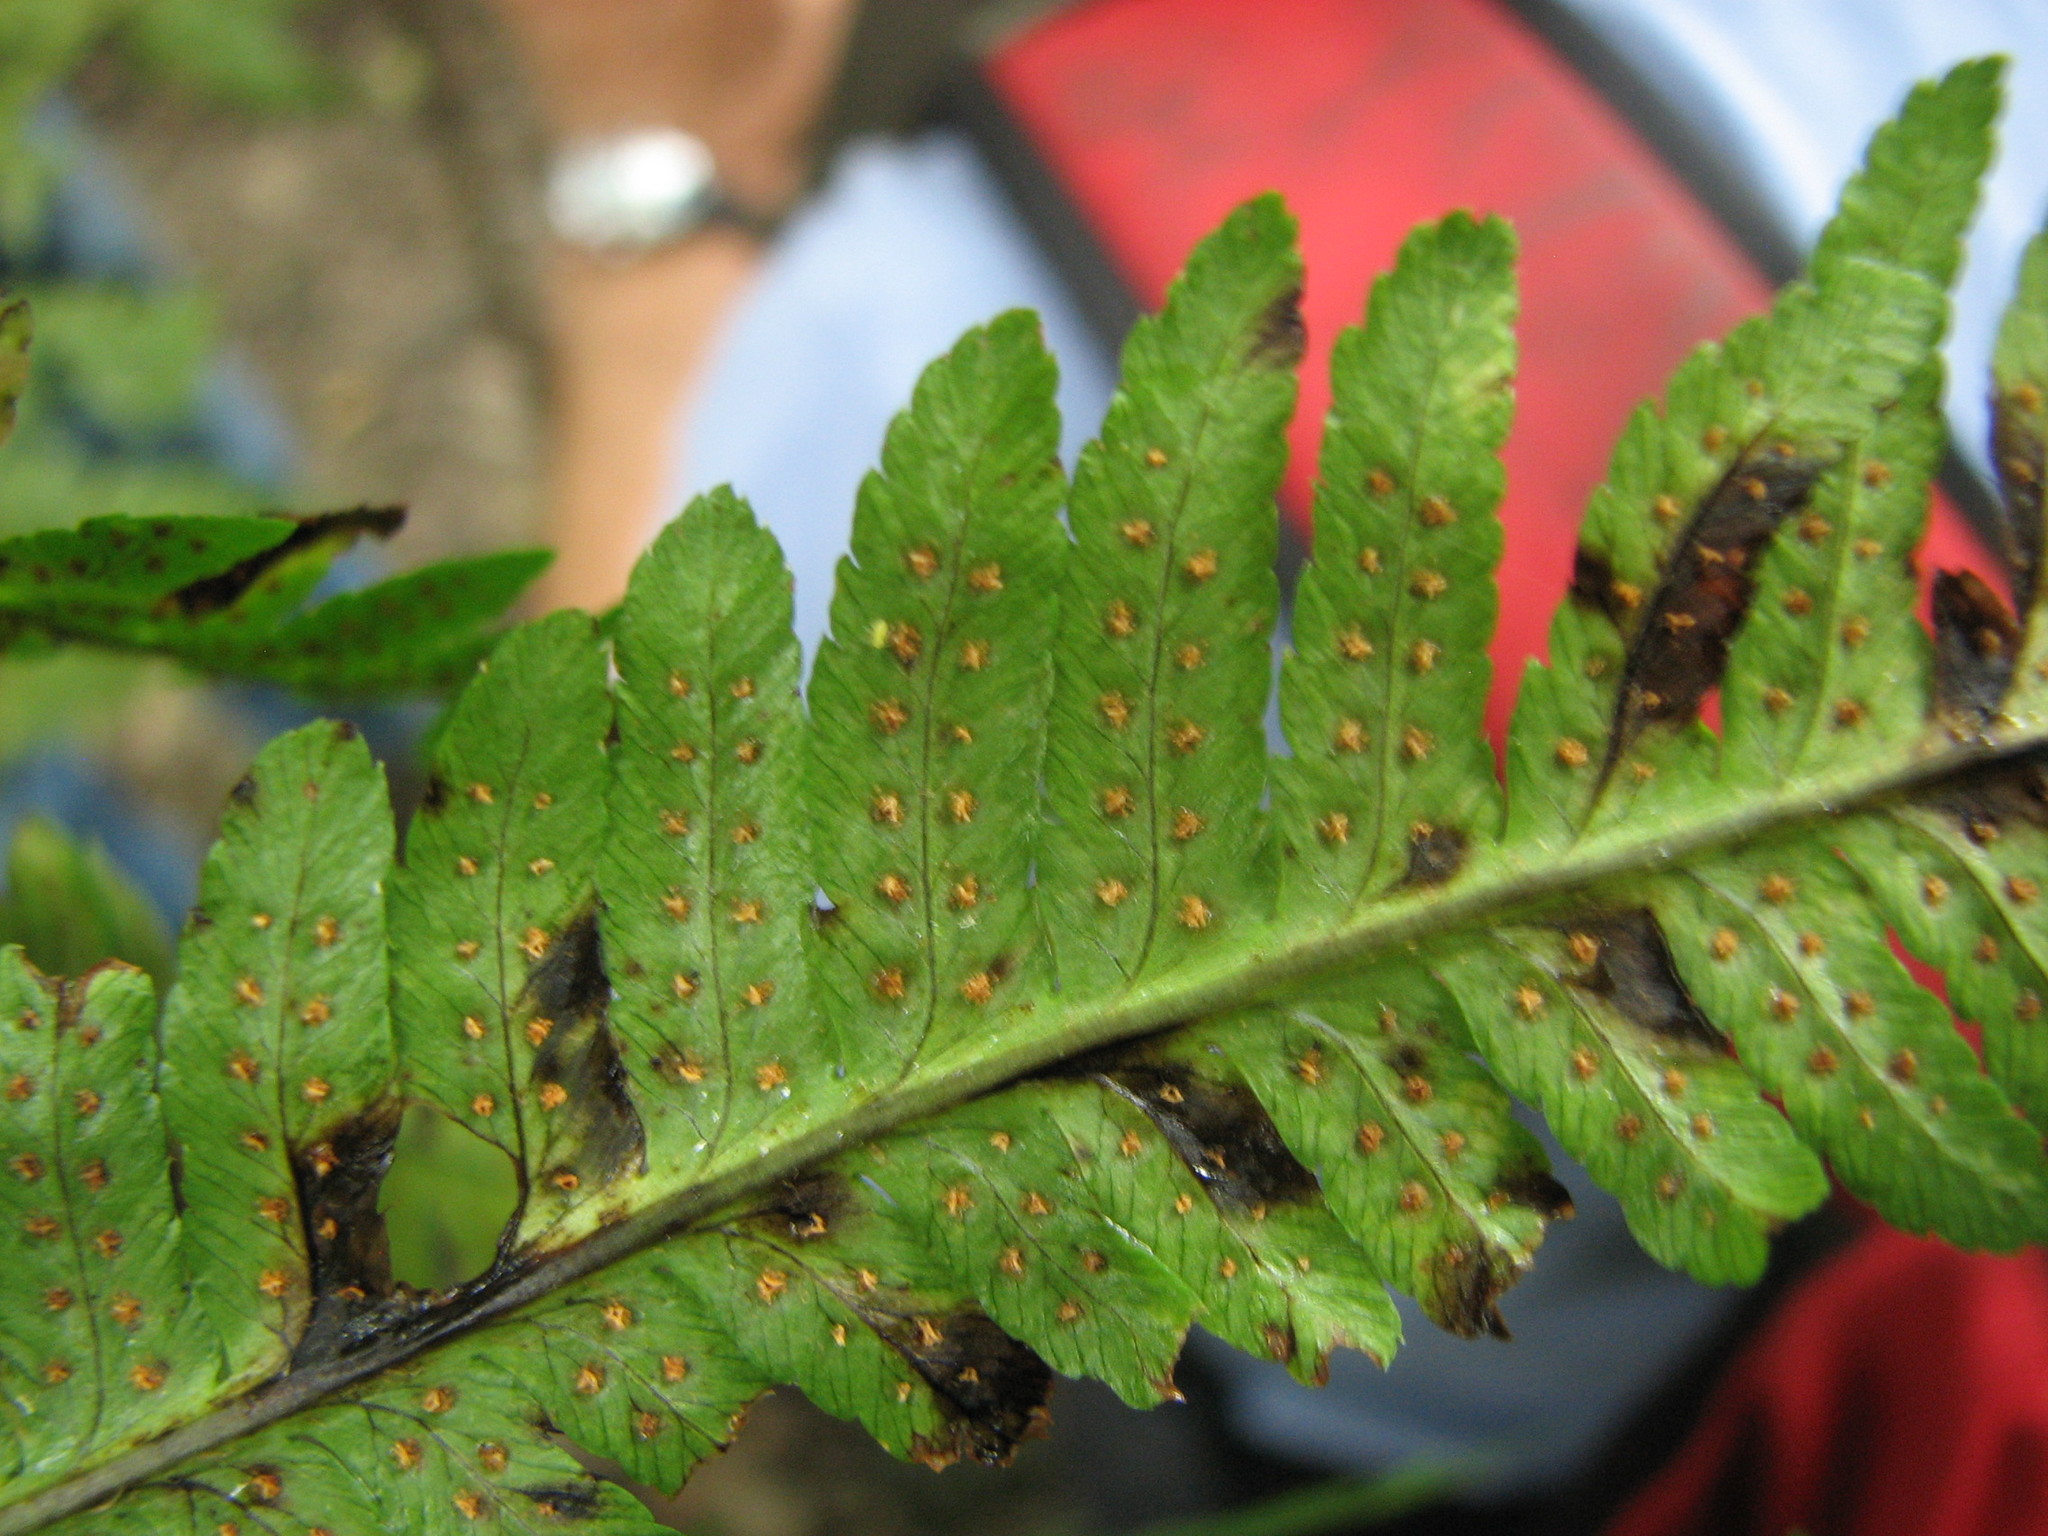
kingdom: Plantae
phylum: Tracheophyta
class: Polypodiopsida
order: Polypodiales
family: Dryopteridaceae
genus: Dryopteris
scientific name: Dryopteris goldieana
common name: Goldie's fern
